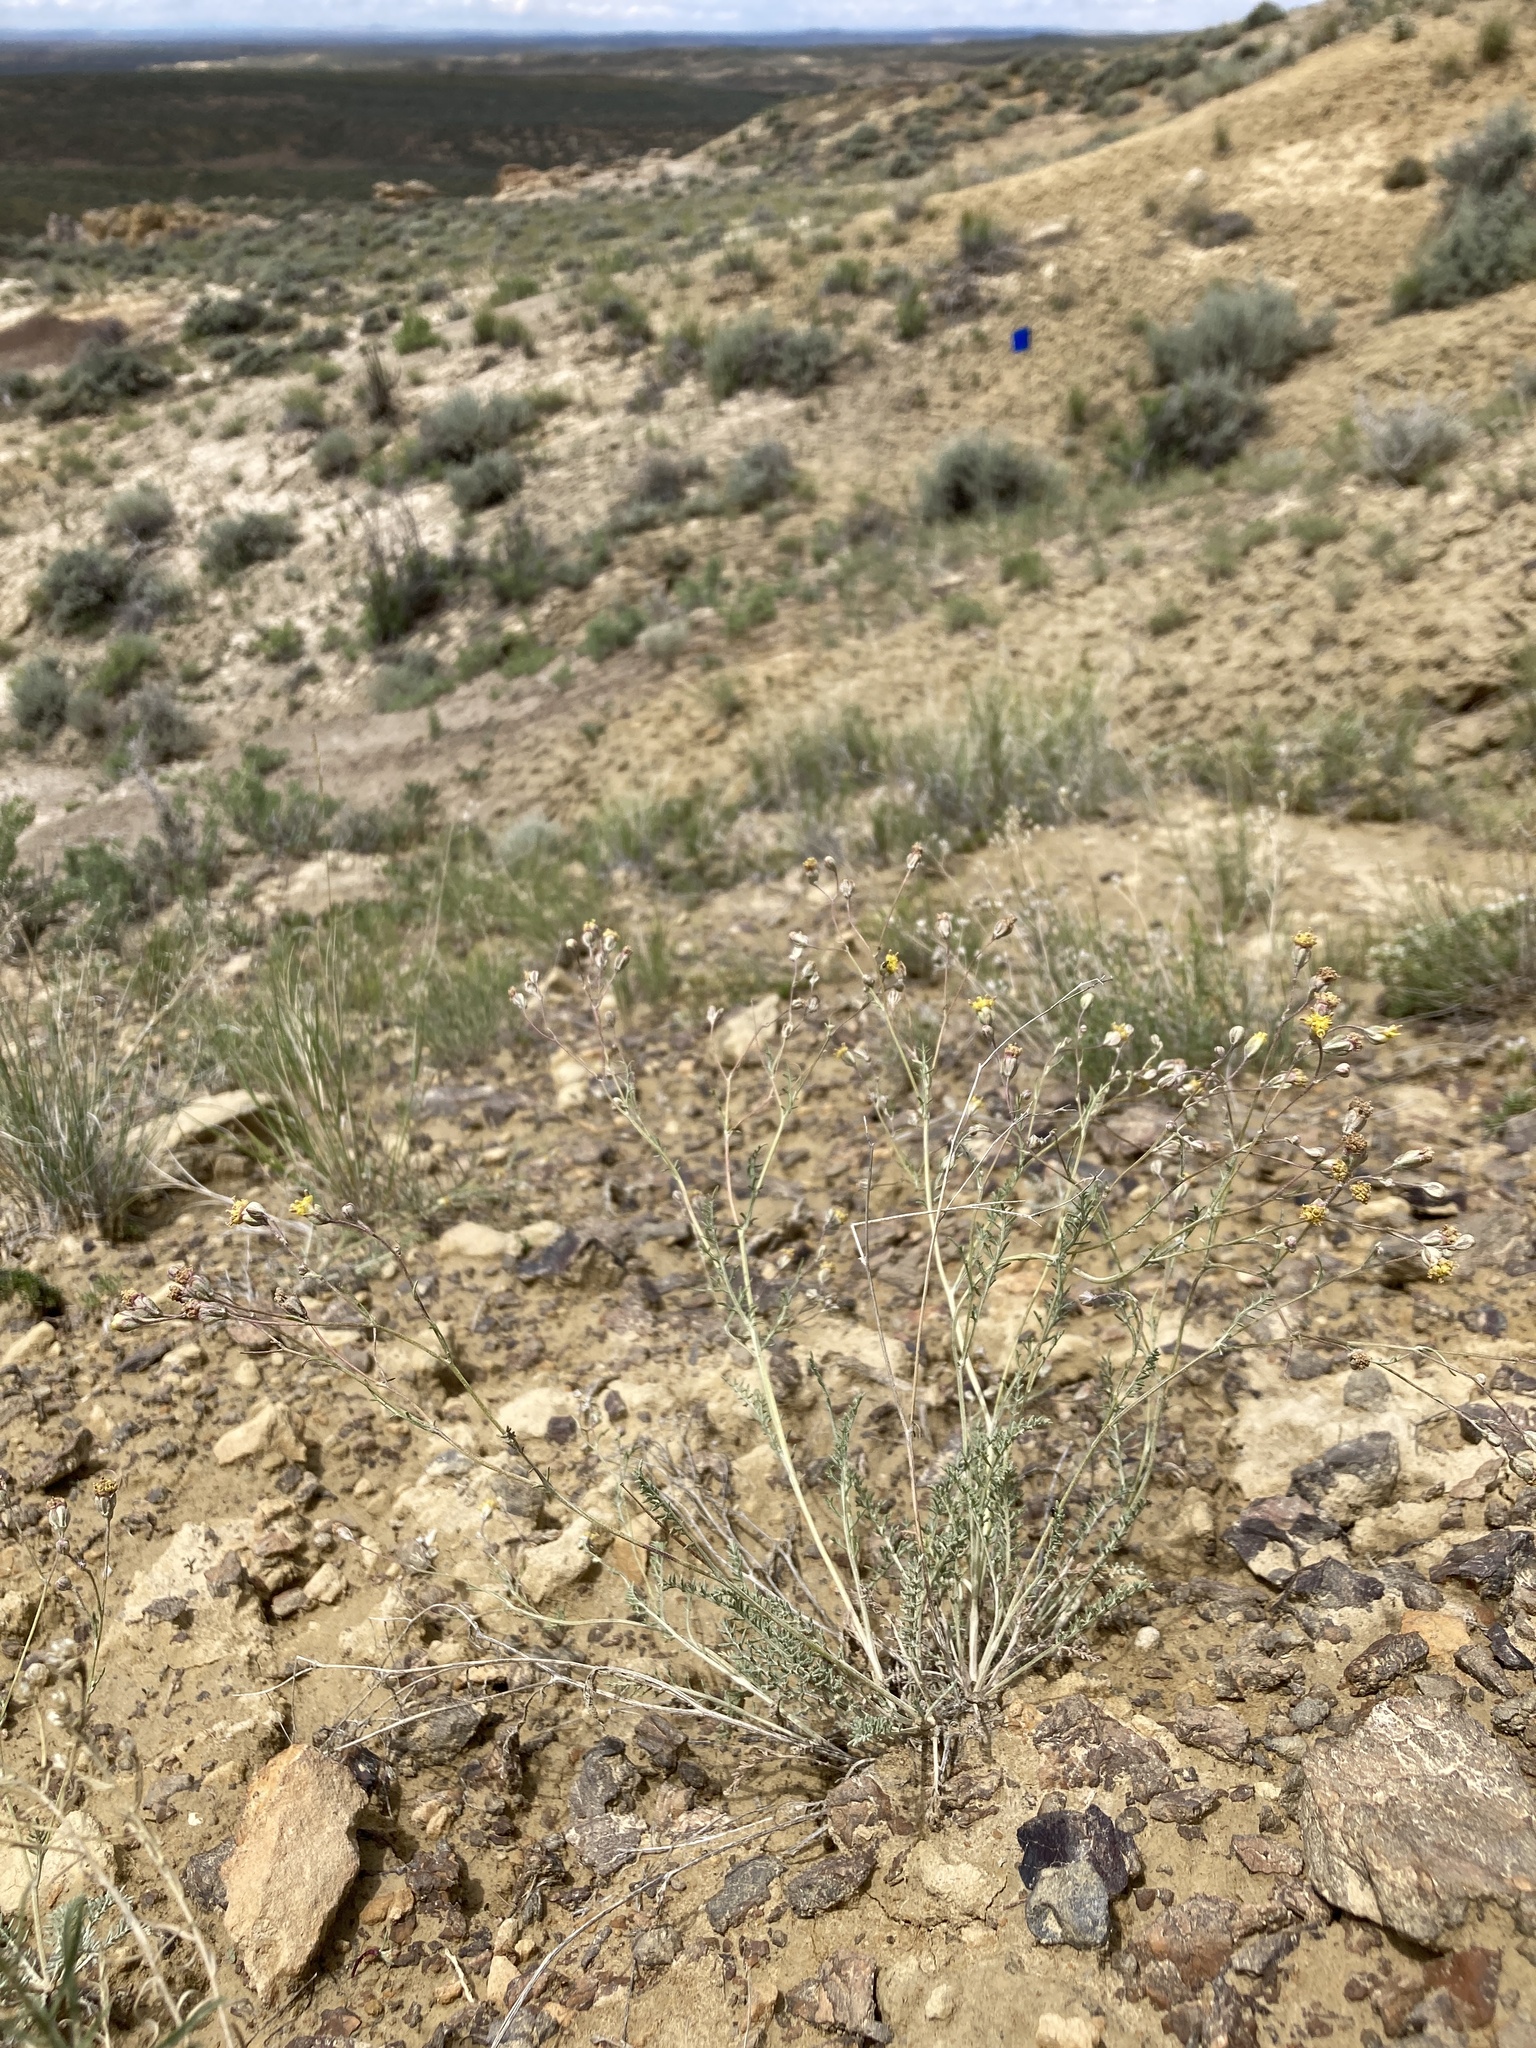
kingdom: Plantae
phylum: Tracheophyta
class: Magnoliopsida
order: Asterales
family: Asteraceae
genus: Hymenopappus
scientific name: Hymenopappus filifolius
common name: Columbia cutleaf
